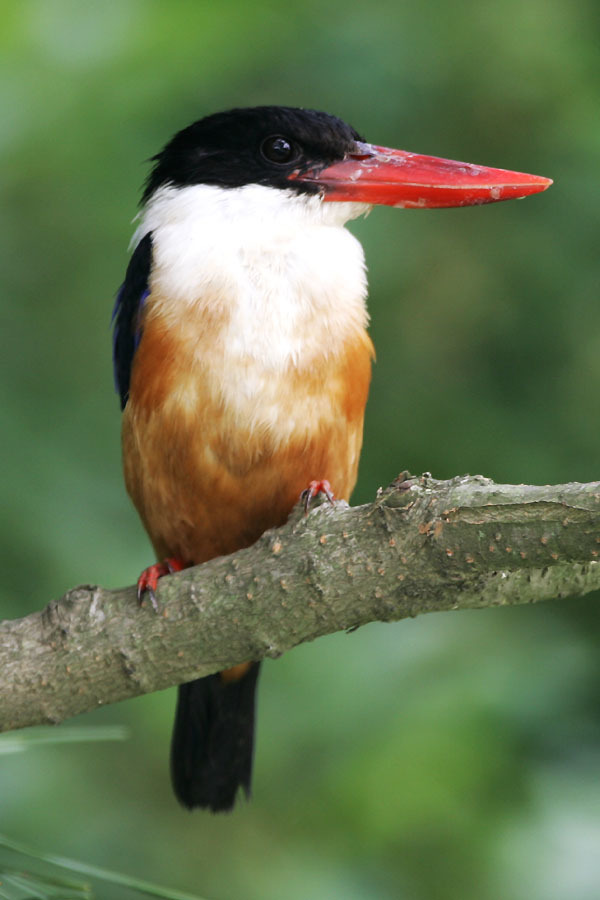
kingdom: Animalia
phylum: Chordata
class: Aves
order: Coraciiformes
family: Alcedinidae
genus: Halcyon
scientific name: Halcyon pileata
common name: Black-capped kingfisher
